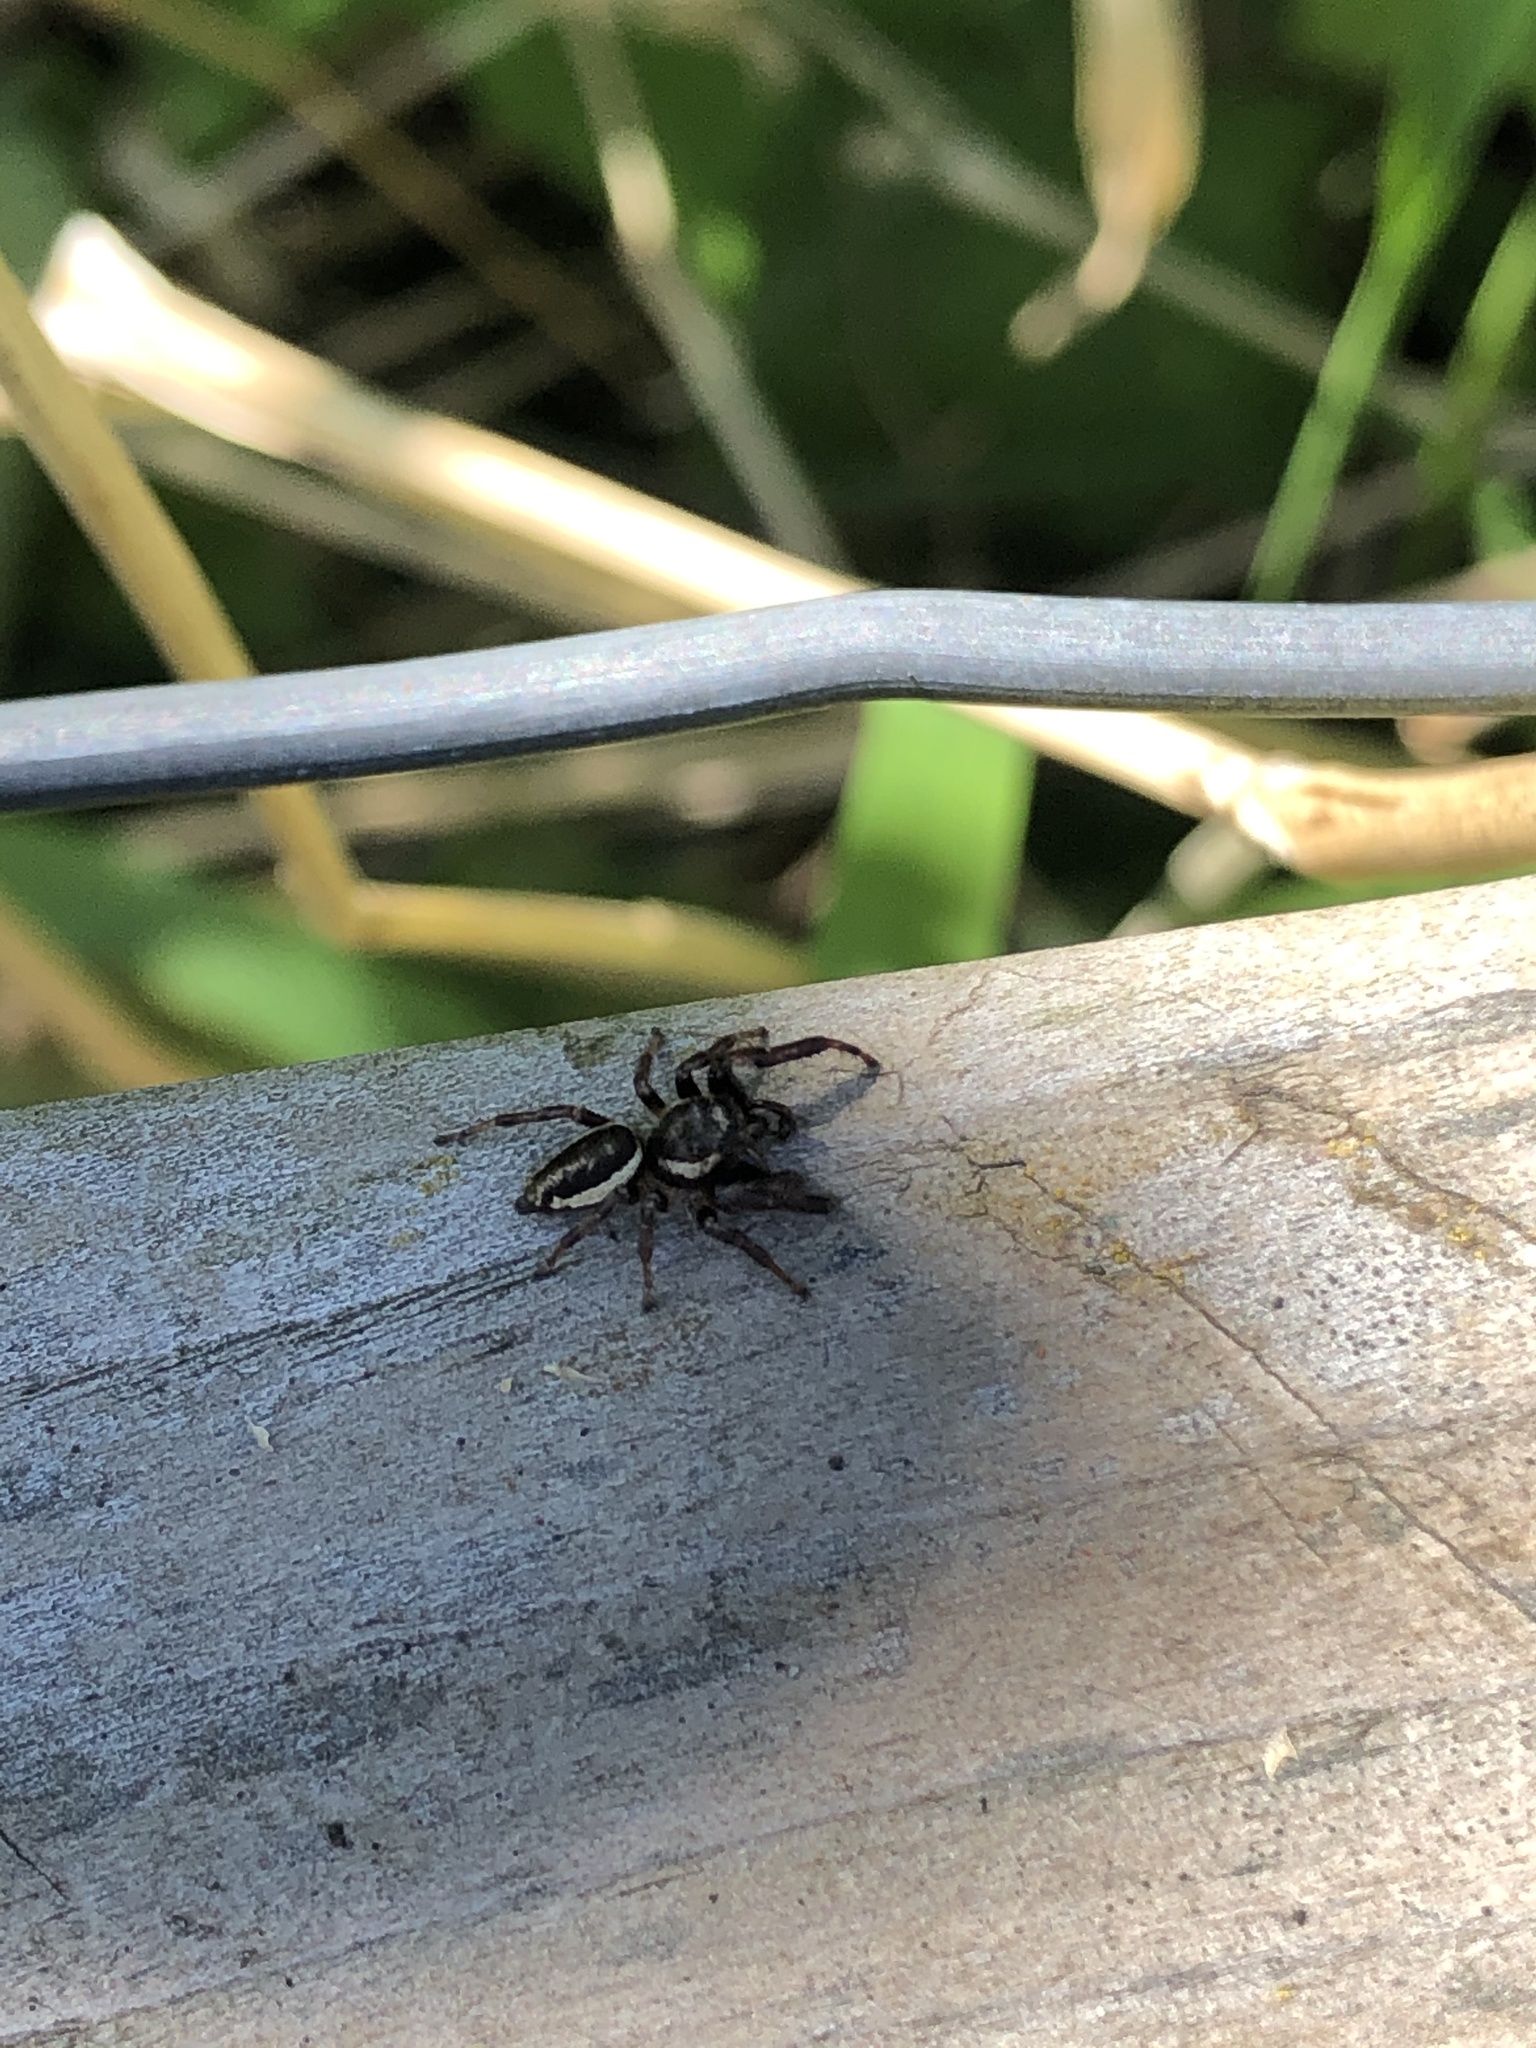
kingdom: Animalia
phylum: Arthropoda
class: Arachnida
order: Araneae
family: Salticidae
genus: Eris
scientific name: Eris militaris
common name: Bronze jumper
